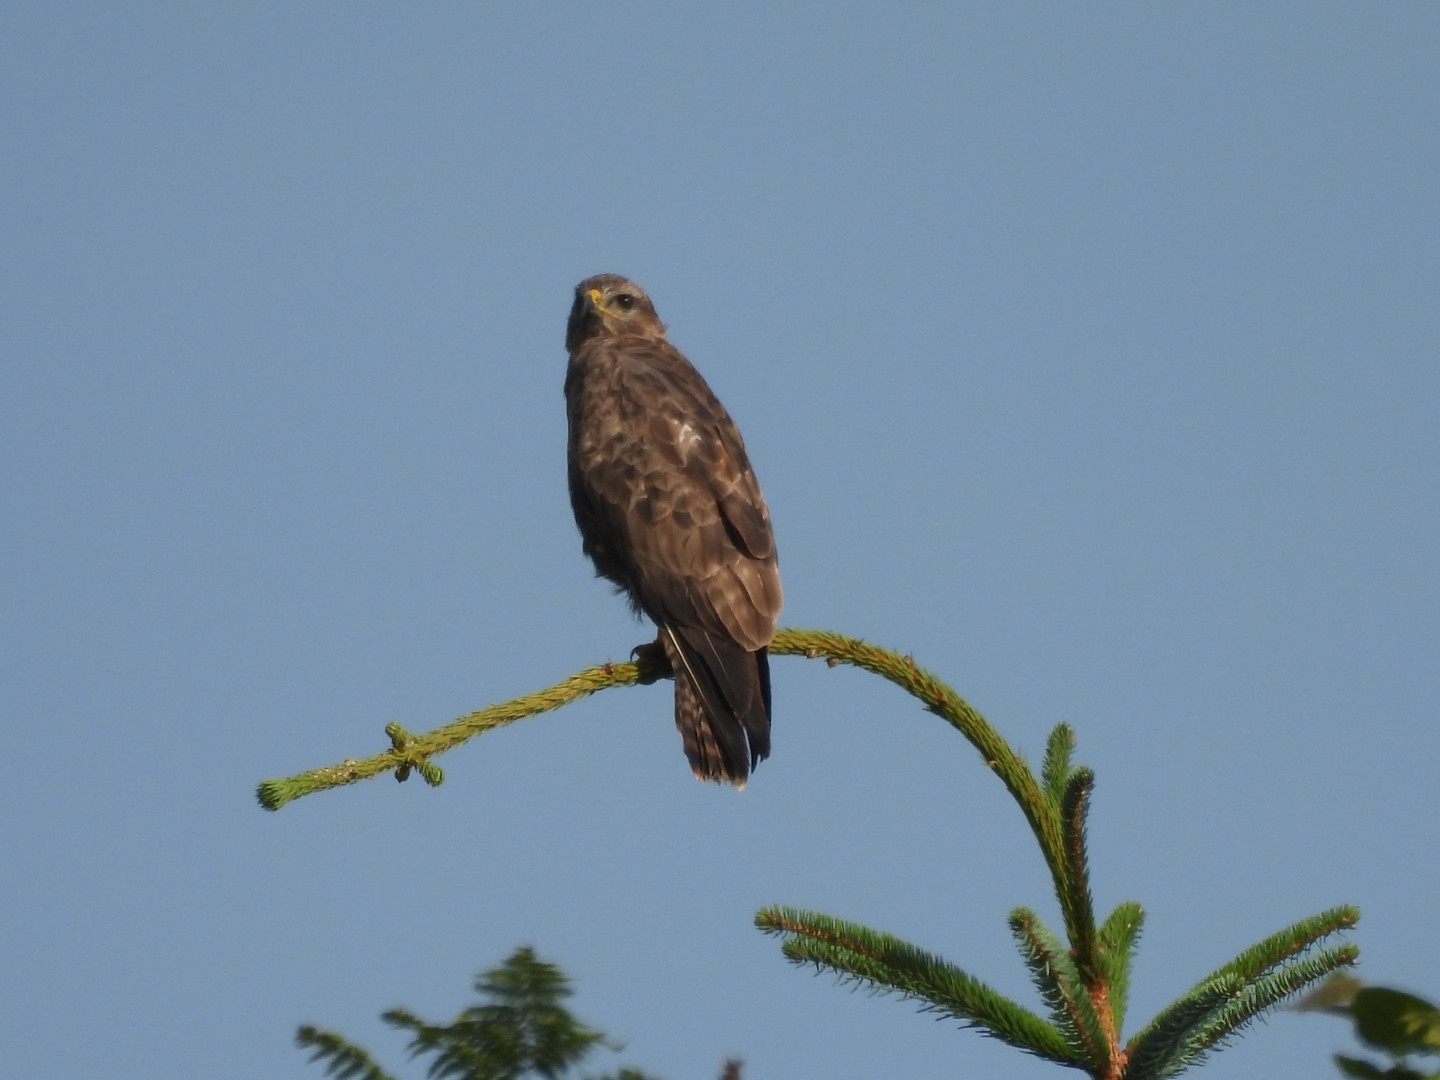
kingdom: Animalia
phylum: Chordata
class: Aves
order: Accipitriformes
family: Accipitridae
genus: Buteo
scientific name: Buteo buteo
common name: Common buzzard
